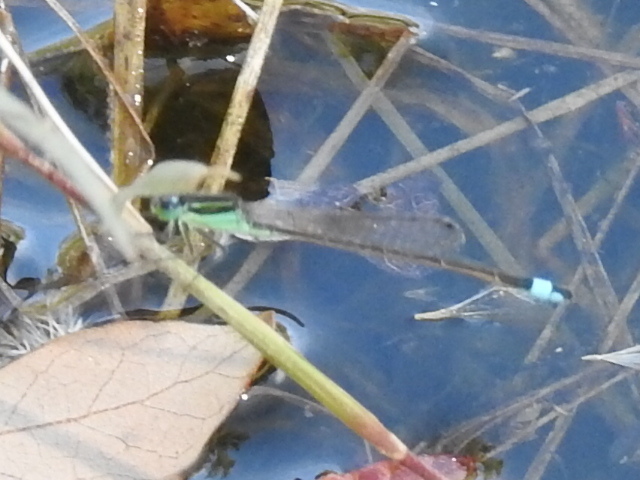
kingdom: Animalia
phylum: Arthropoda
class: Insecta
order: Odonata
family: Coenagrionidae
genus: Ischnura
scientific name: Ischnura ramburii
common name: Rambur's forktail
